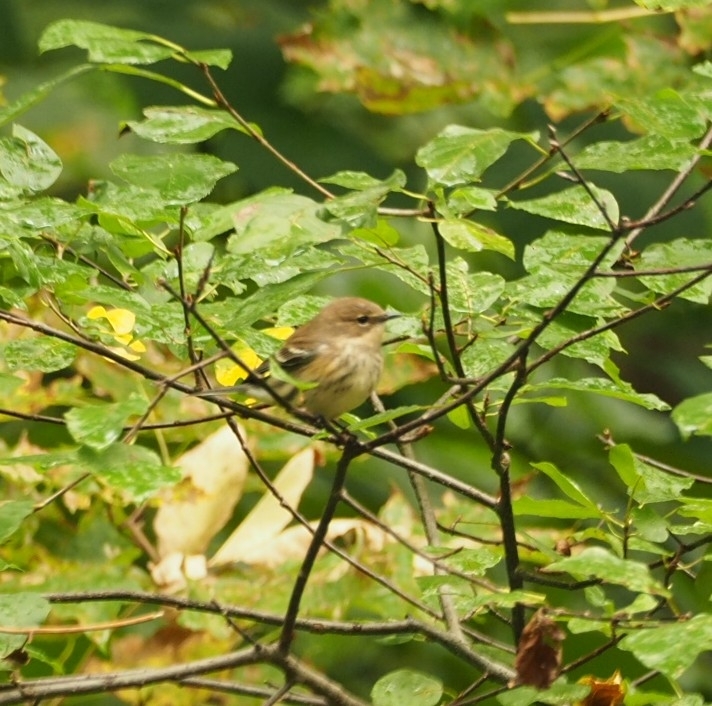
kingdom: Animalia
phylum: Chordata
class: Aves
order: Passeriformes
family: Parulidae
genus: Setophaga
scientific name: Setophaga coronata
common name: Myrtle warbler
